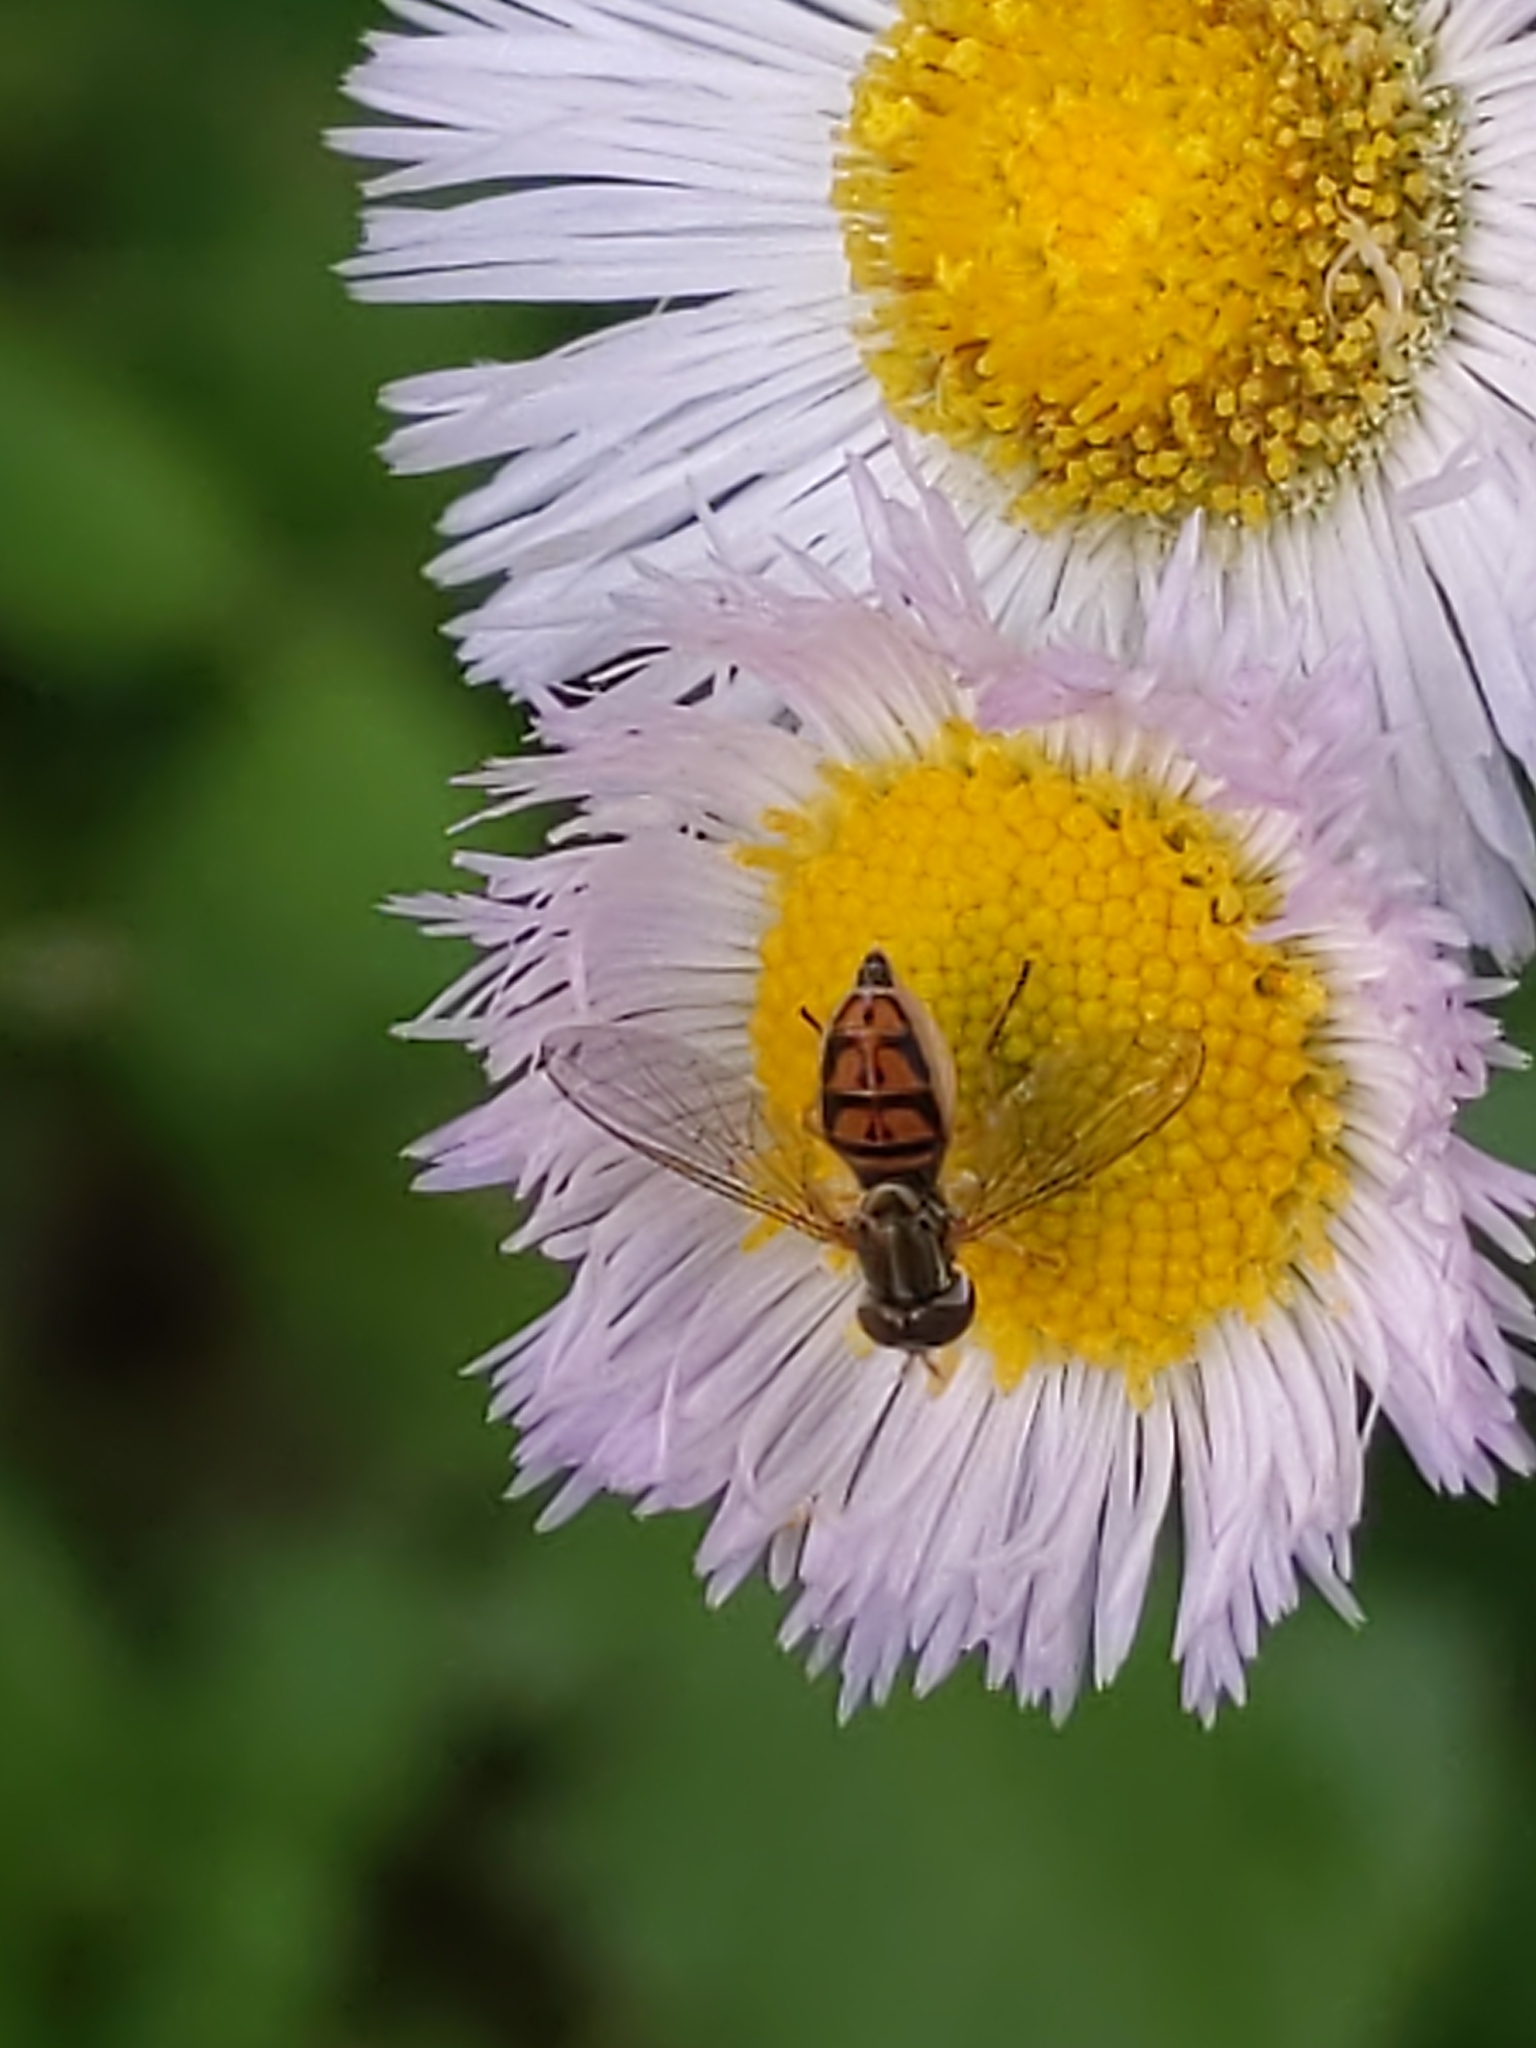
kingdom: Animalia
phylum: Arthropoda
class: Insecta
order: Diptera
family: Syrphidae
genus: Toxomerus
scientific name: Toxomerus marginatus
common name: Syrphid fly
